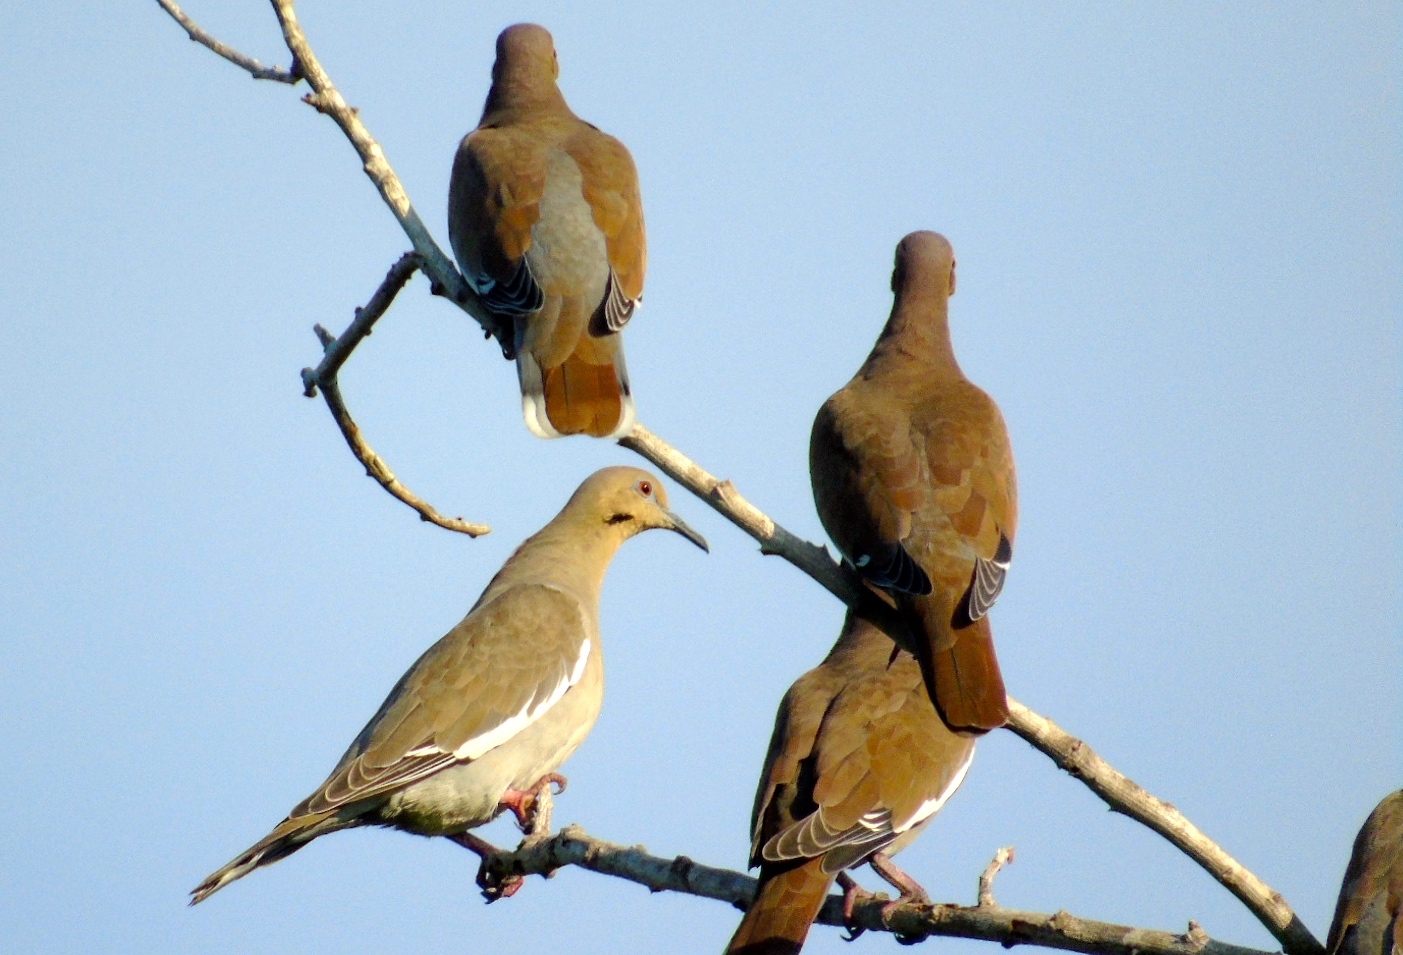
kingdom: Animalia
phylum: Chordata
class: Aves
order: Columbiformes
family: Columbidae
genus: Zenaida
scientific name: Zenaida asiatica
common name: White-winged dove
